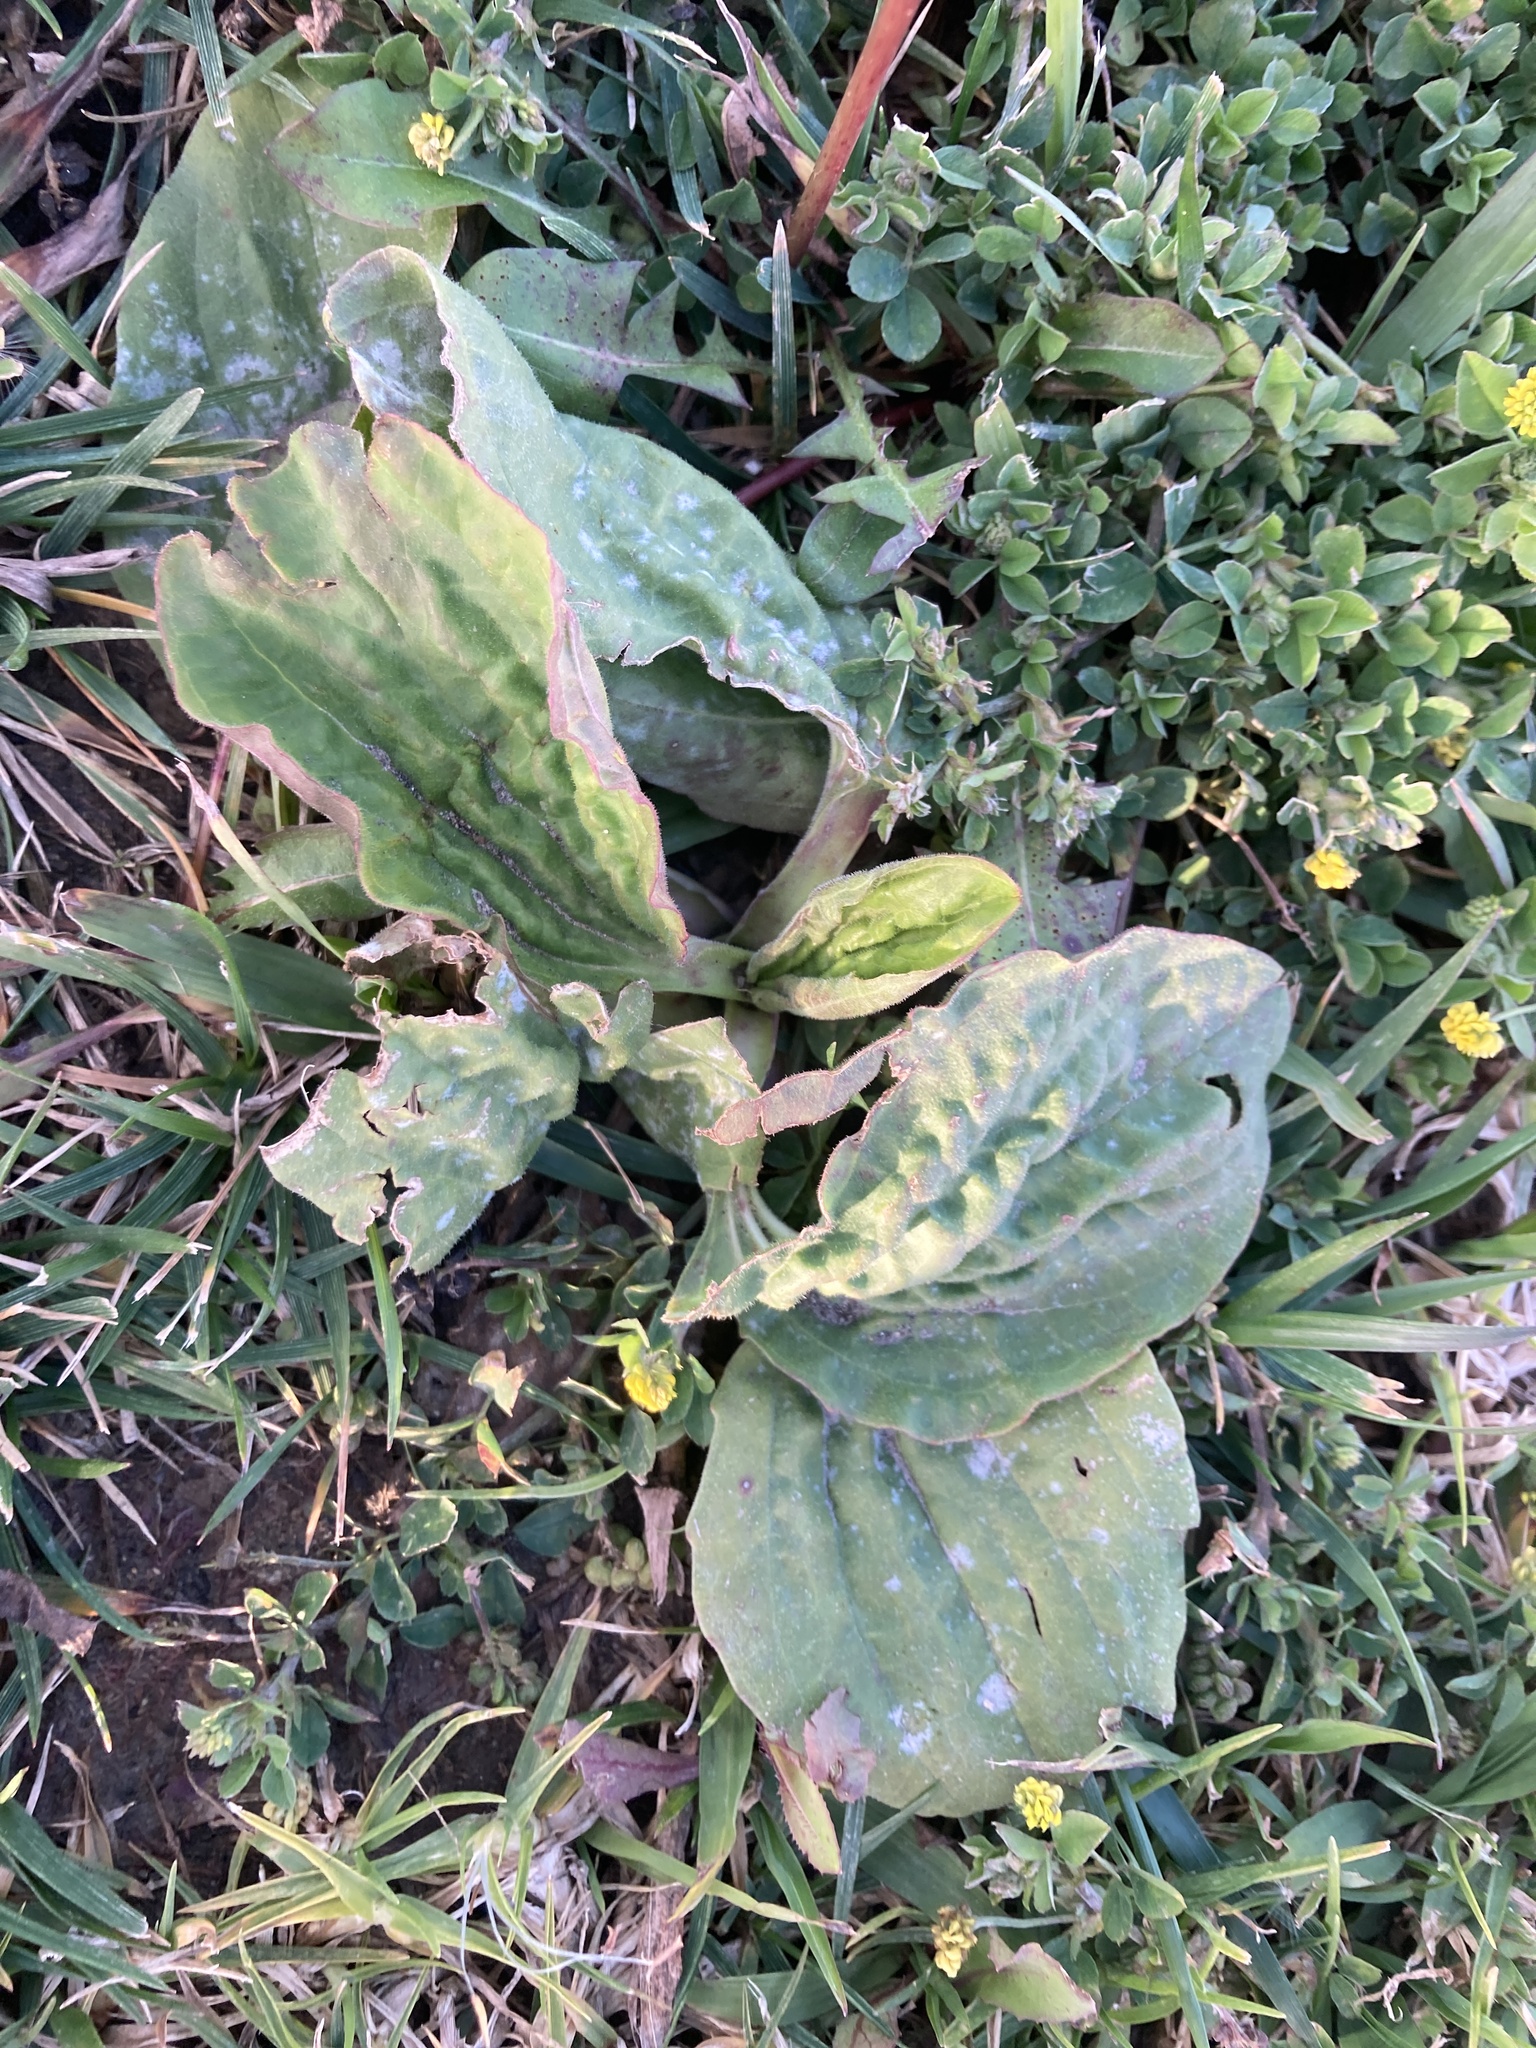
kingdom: Plantae
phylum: Tracheophyta
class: Magnoliopsida
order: Lamiales
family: Plantaginaceae
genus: Plantago
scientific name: Plantago major
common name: Common plantain
